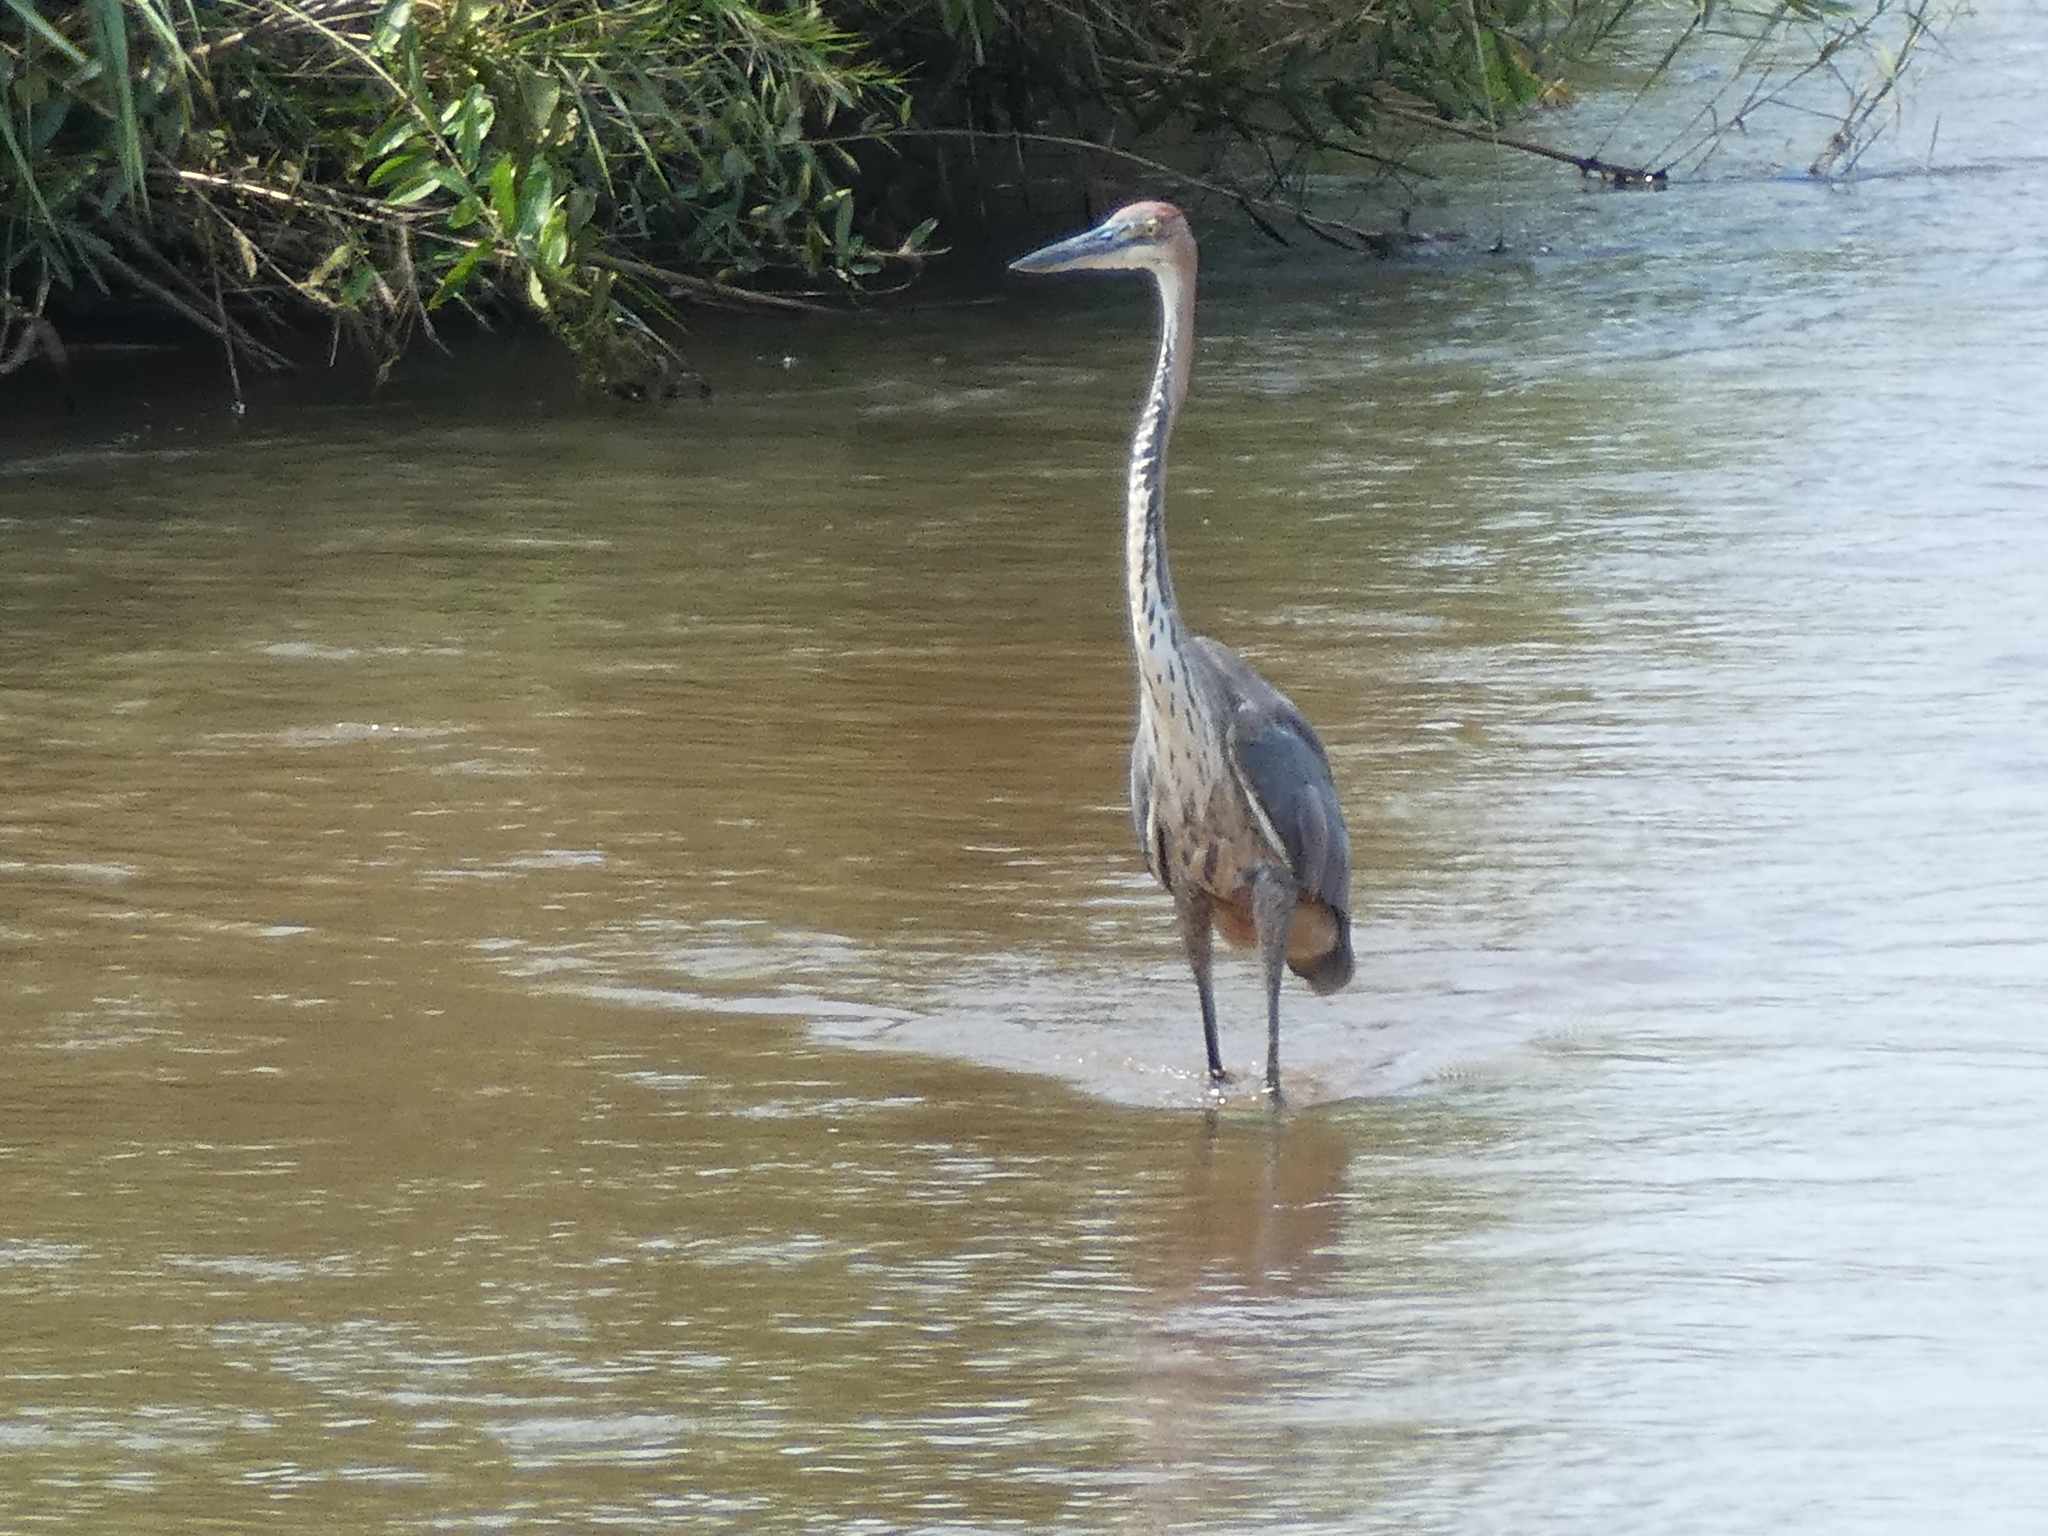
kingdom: Animalia
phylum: Chordata
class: Aves
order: Pelecaniformes
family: Ardeidae
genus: Ardea
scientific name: Ardea goliath
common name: Goliath heron
